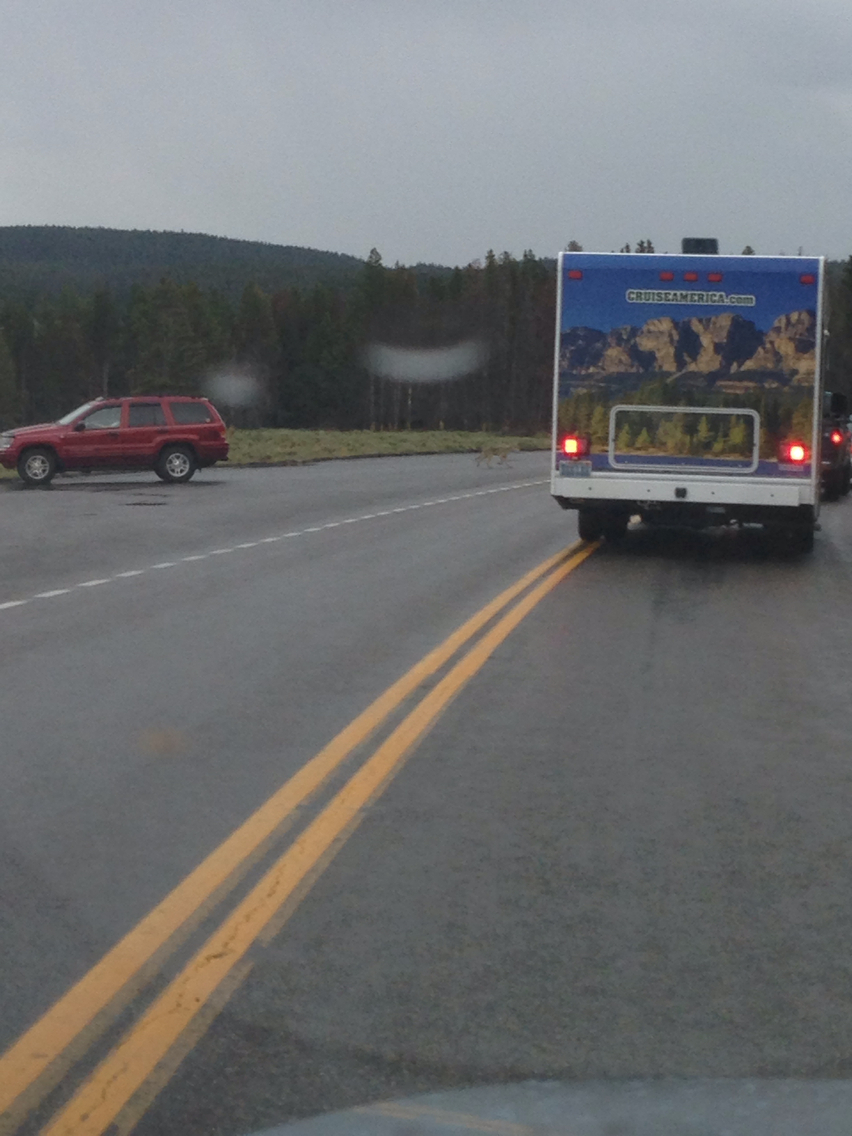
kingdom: Animalia
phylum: Chordata
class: Mammalia
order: Carnivora
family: Canidae
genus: Canis
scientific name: Canis latrans
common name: Coyote
